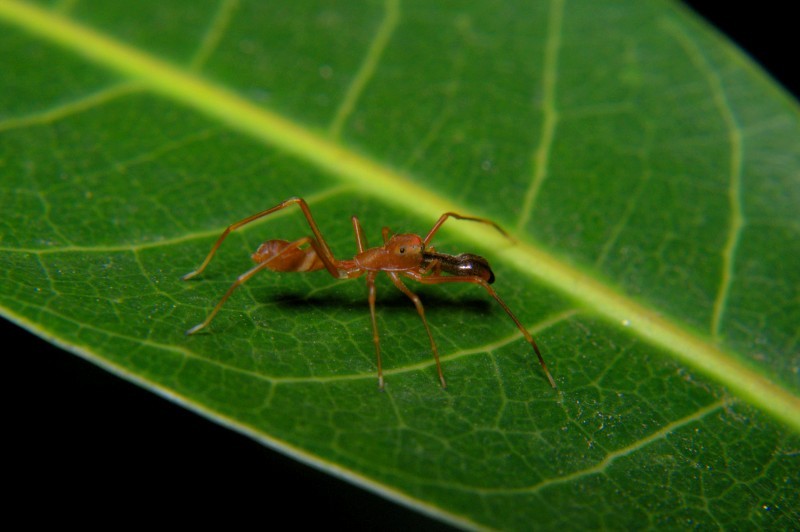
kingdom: Animalia
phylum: Arthropoda
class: Arachnida
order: Araneae
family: Salticidae
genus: Myrmaplata
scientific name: Myrmaplata plataleoides
